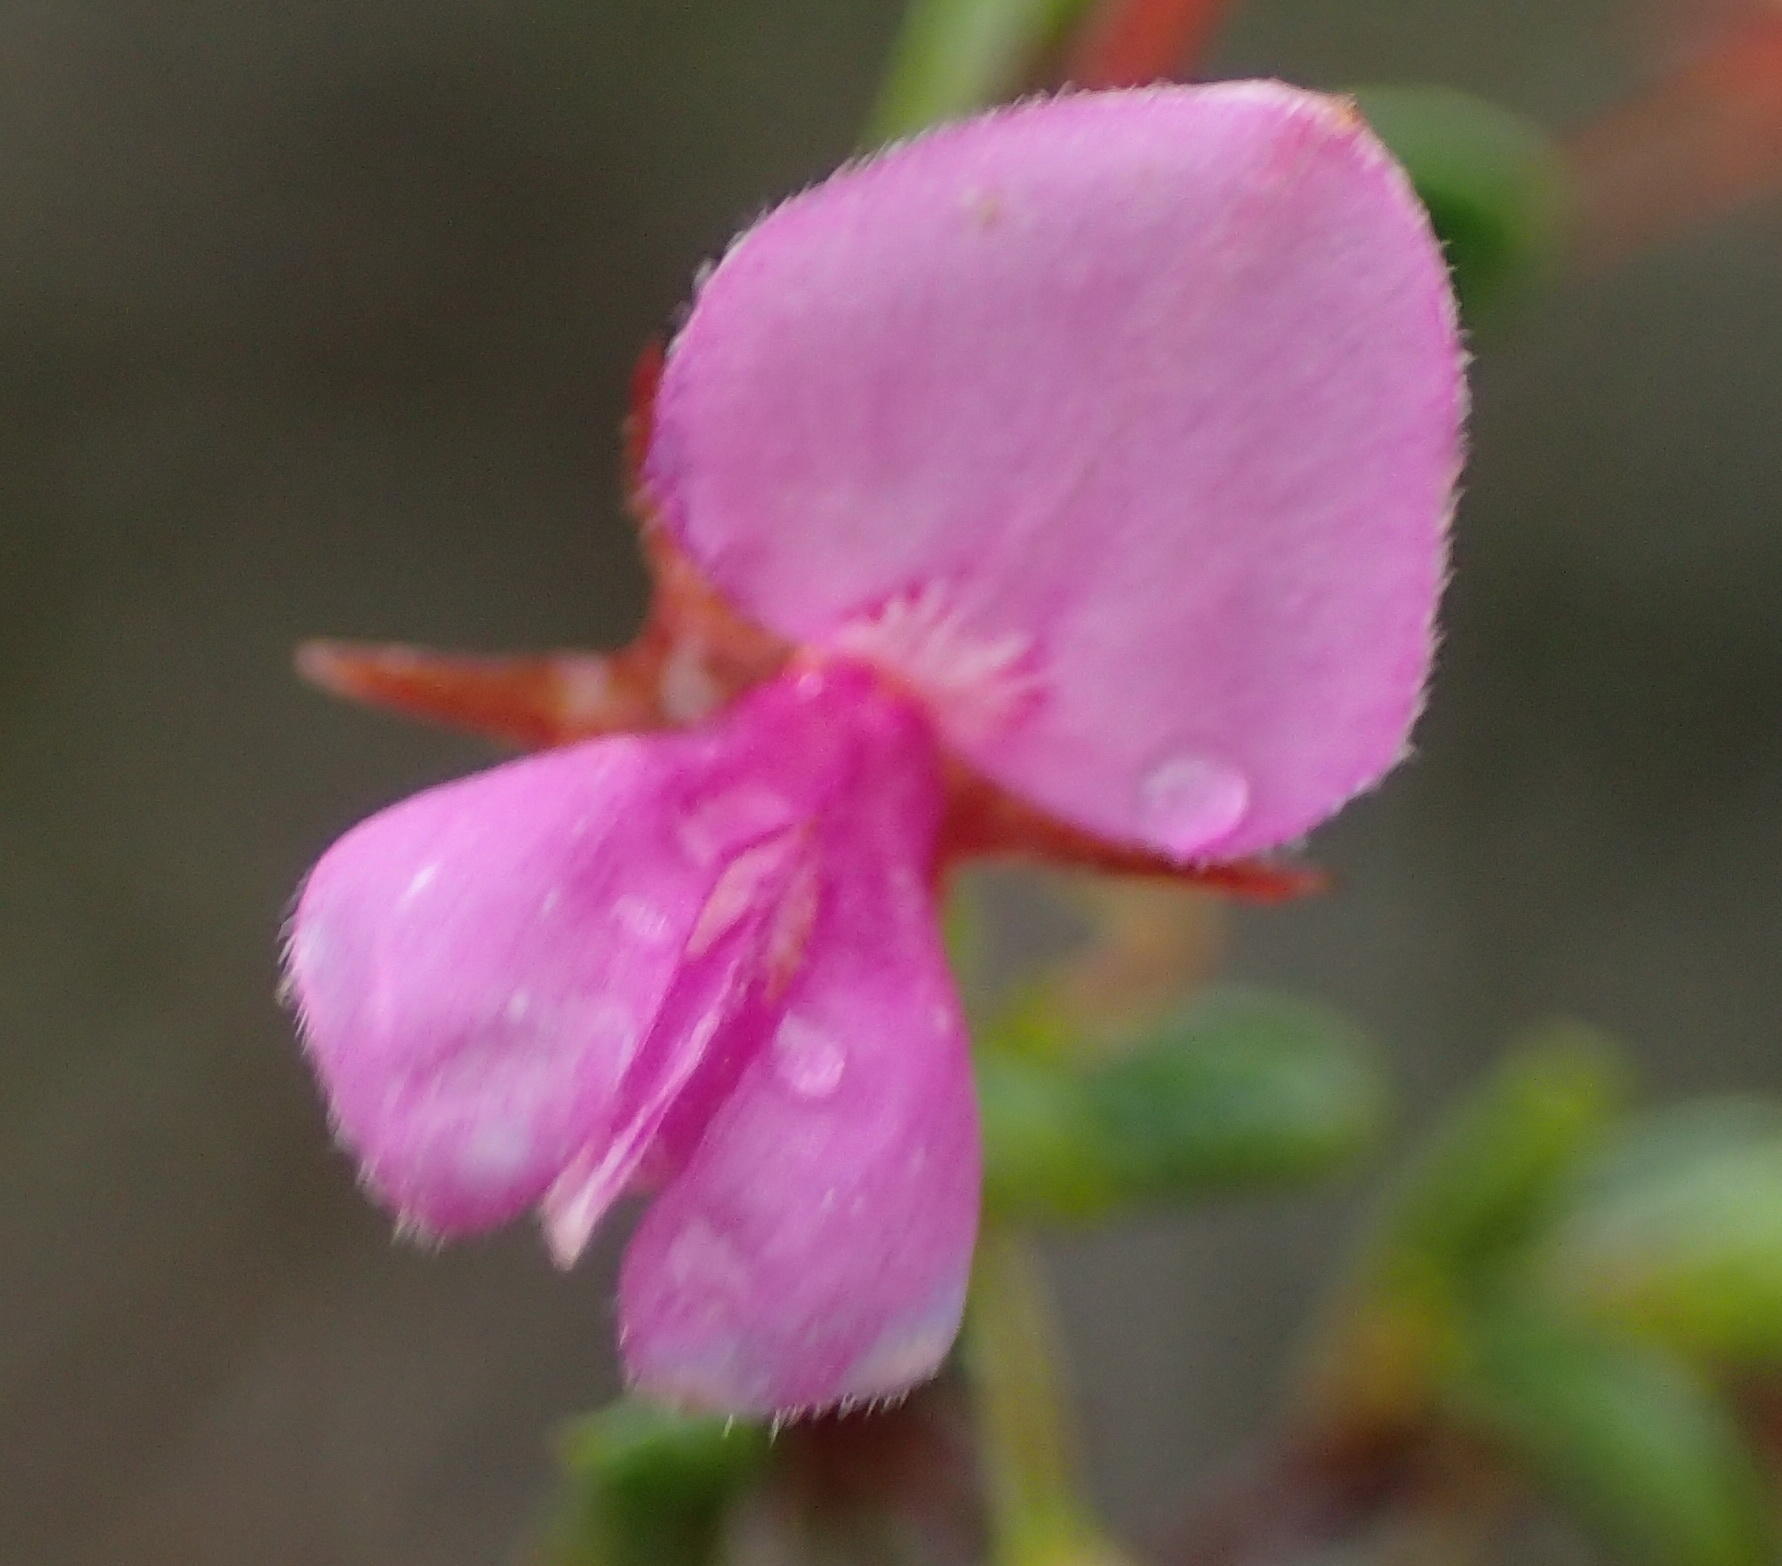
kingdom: Plantae
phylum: Tracheophyta
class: Magnoliopsida
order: Fabales
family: Fabaceae
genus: Indigofera
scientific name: Indigofera setosa
